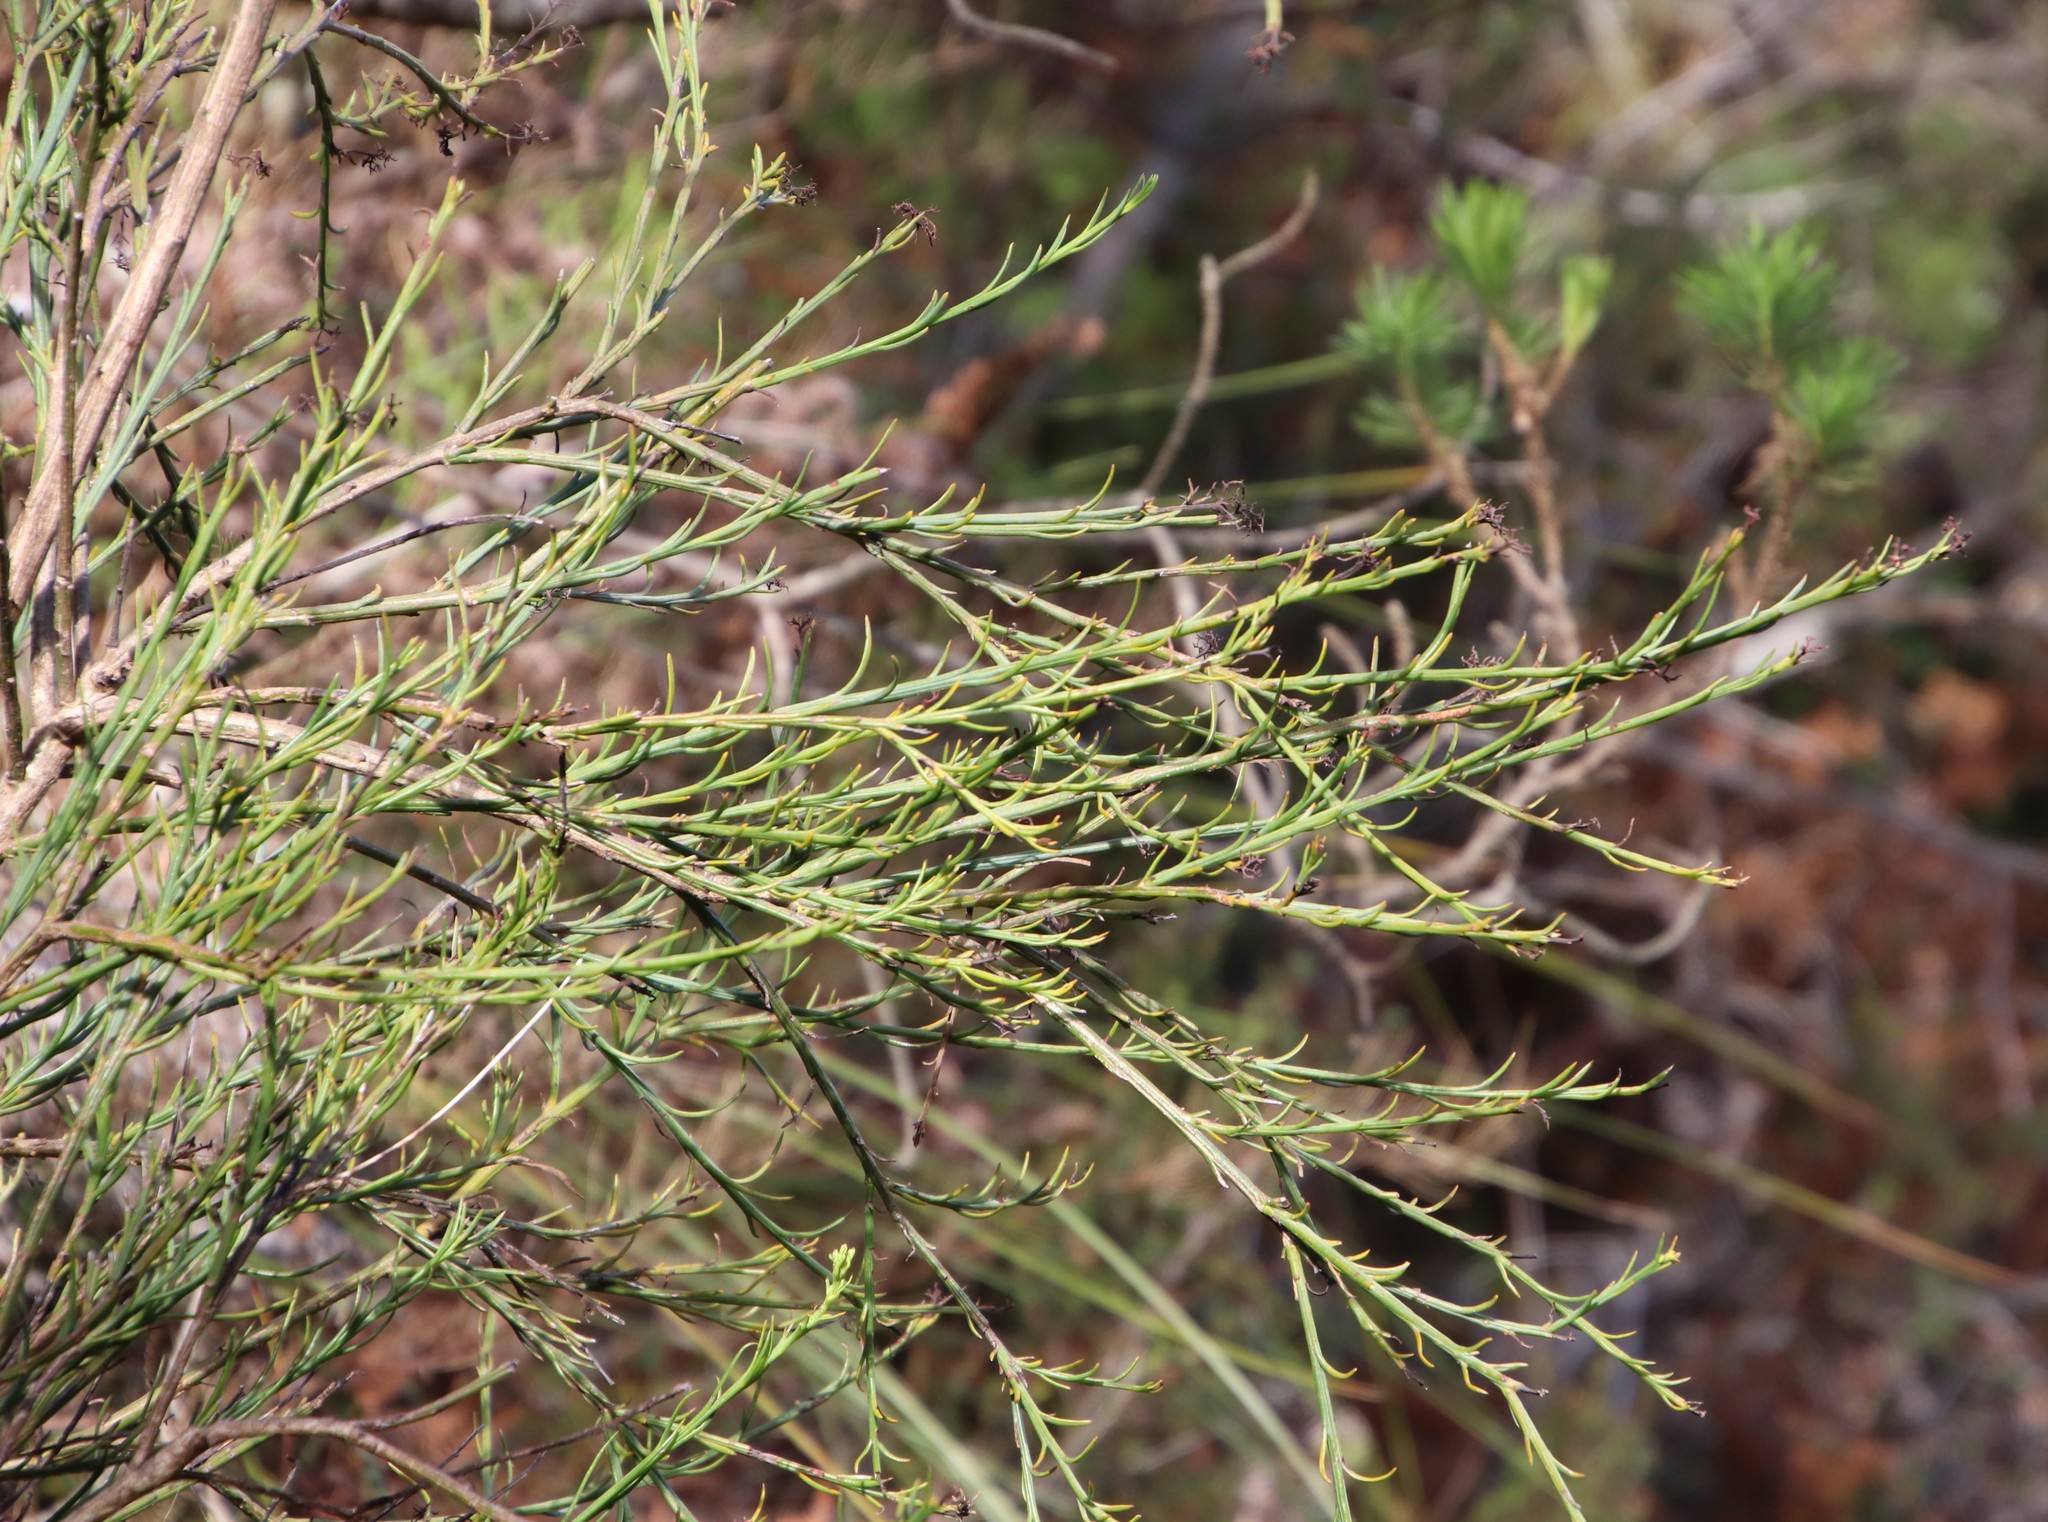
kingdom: Plantae
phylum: Tracheophyta
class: Magnoliopsida
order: Santalales
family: Thesiaceae
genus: Thesium
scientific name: Thesium strictum
